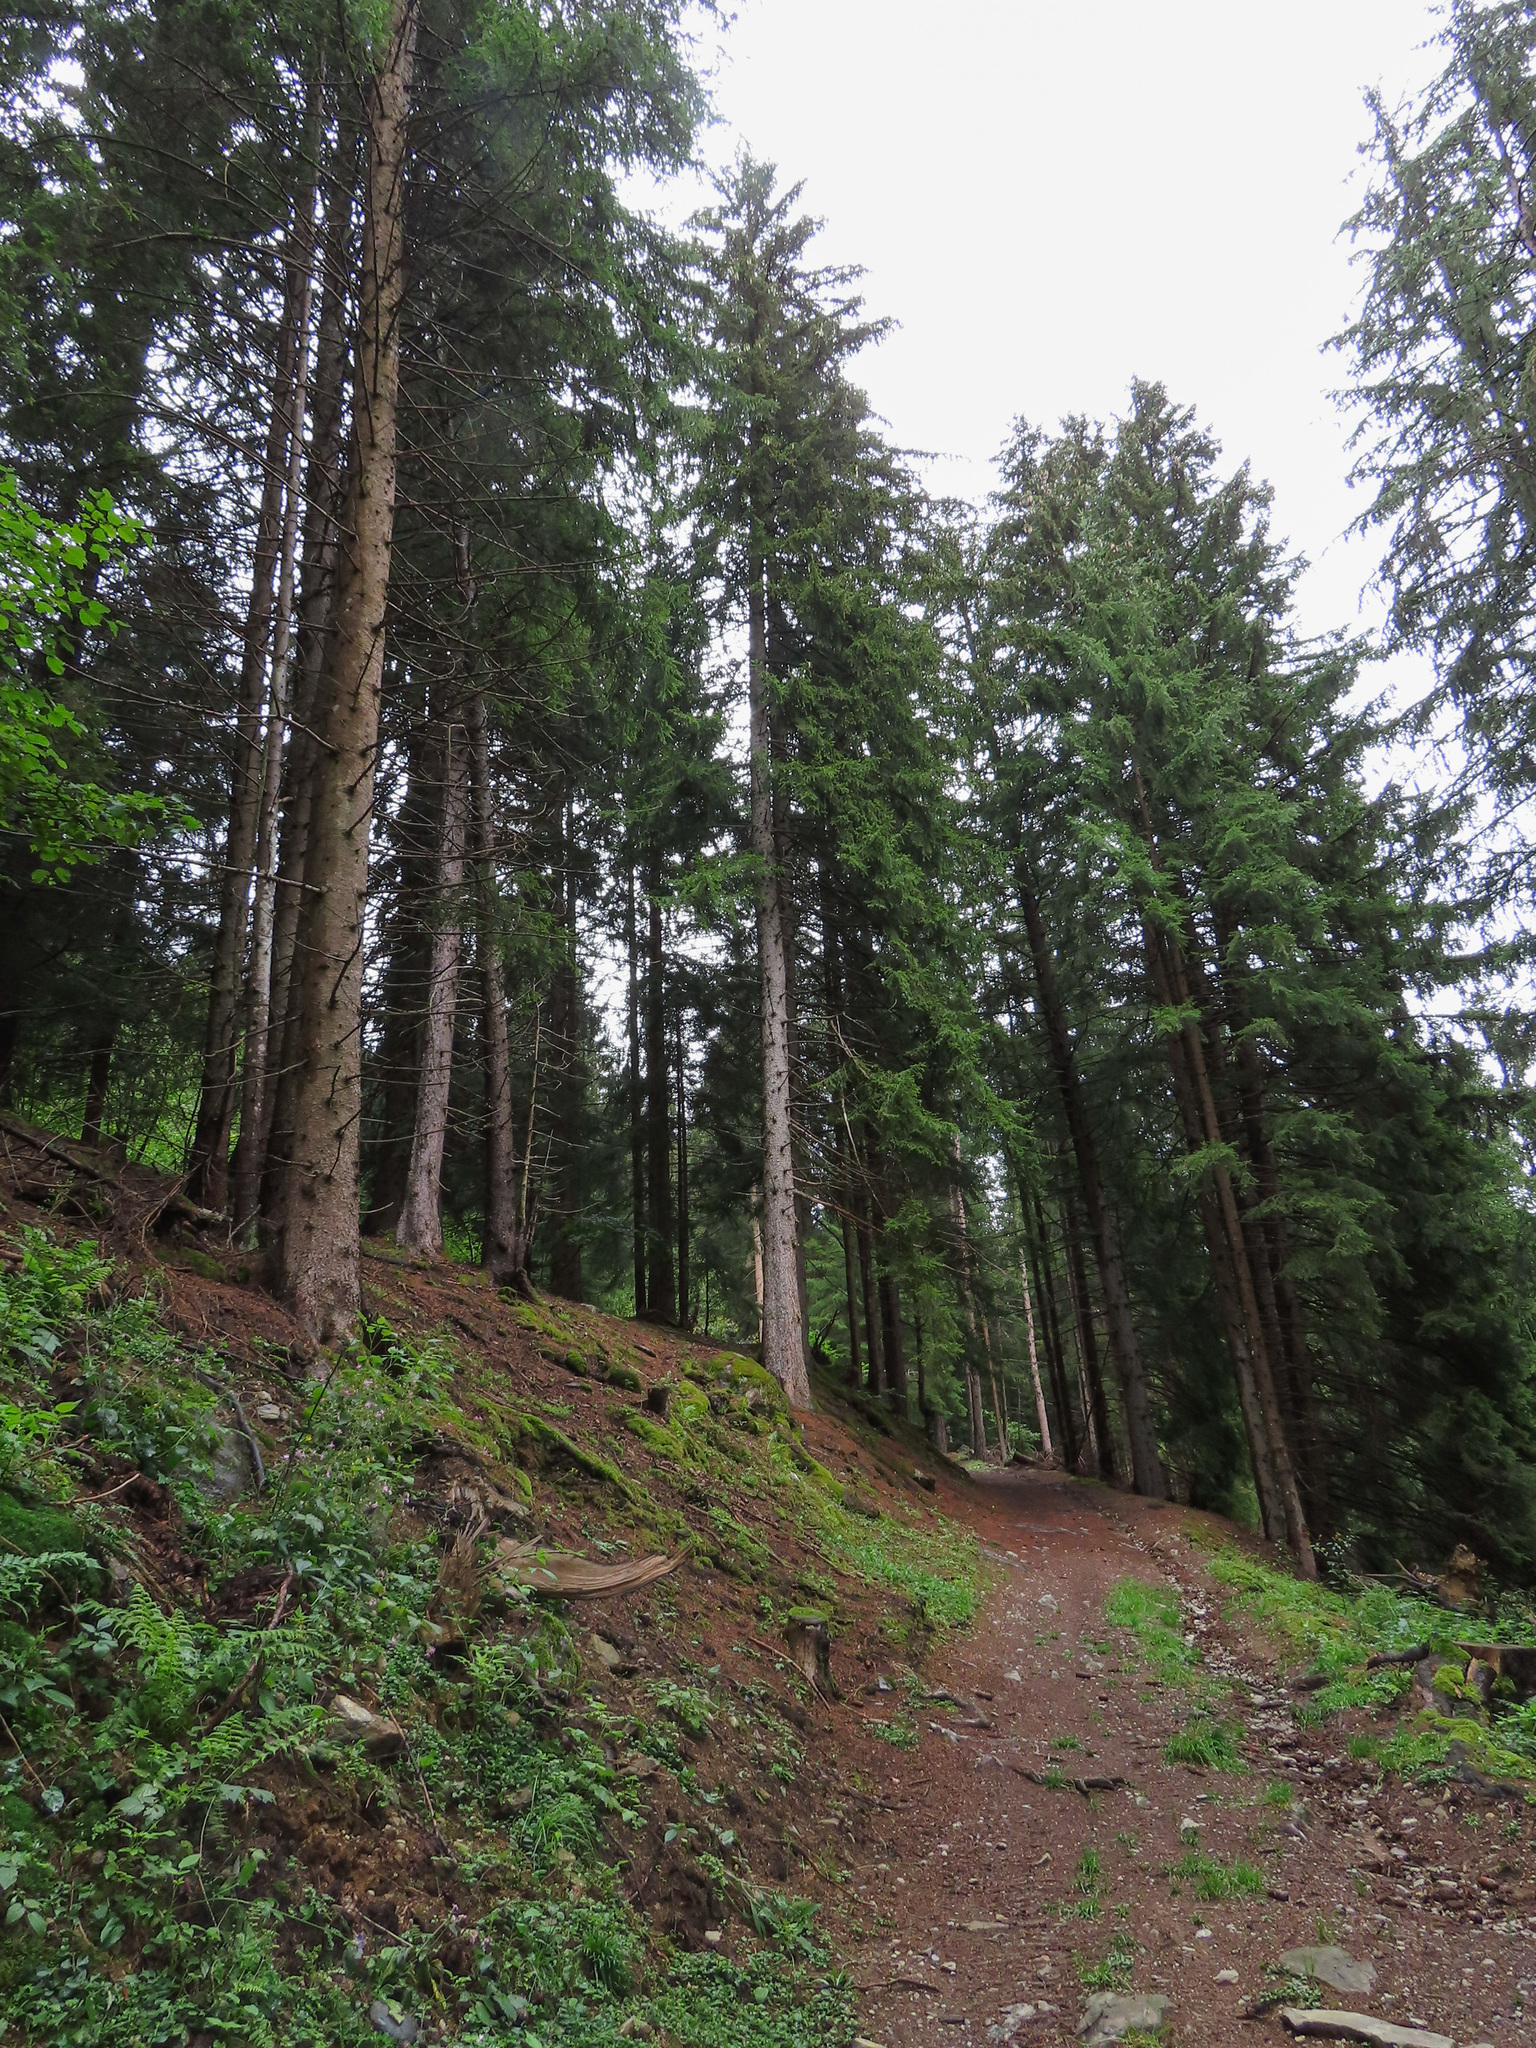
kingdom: Plantae
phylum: Tracheophyta
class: Pinopsida
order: Pinales
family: Pinaceae
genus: Picea
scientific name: Picea abies
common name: Norway spruce
